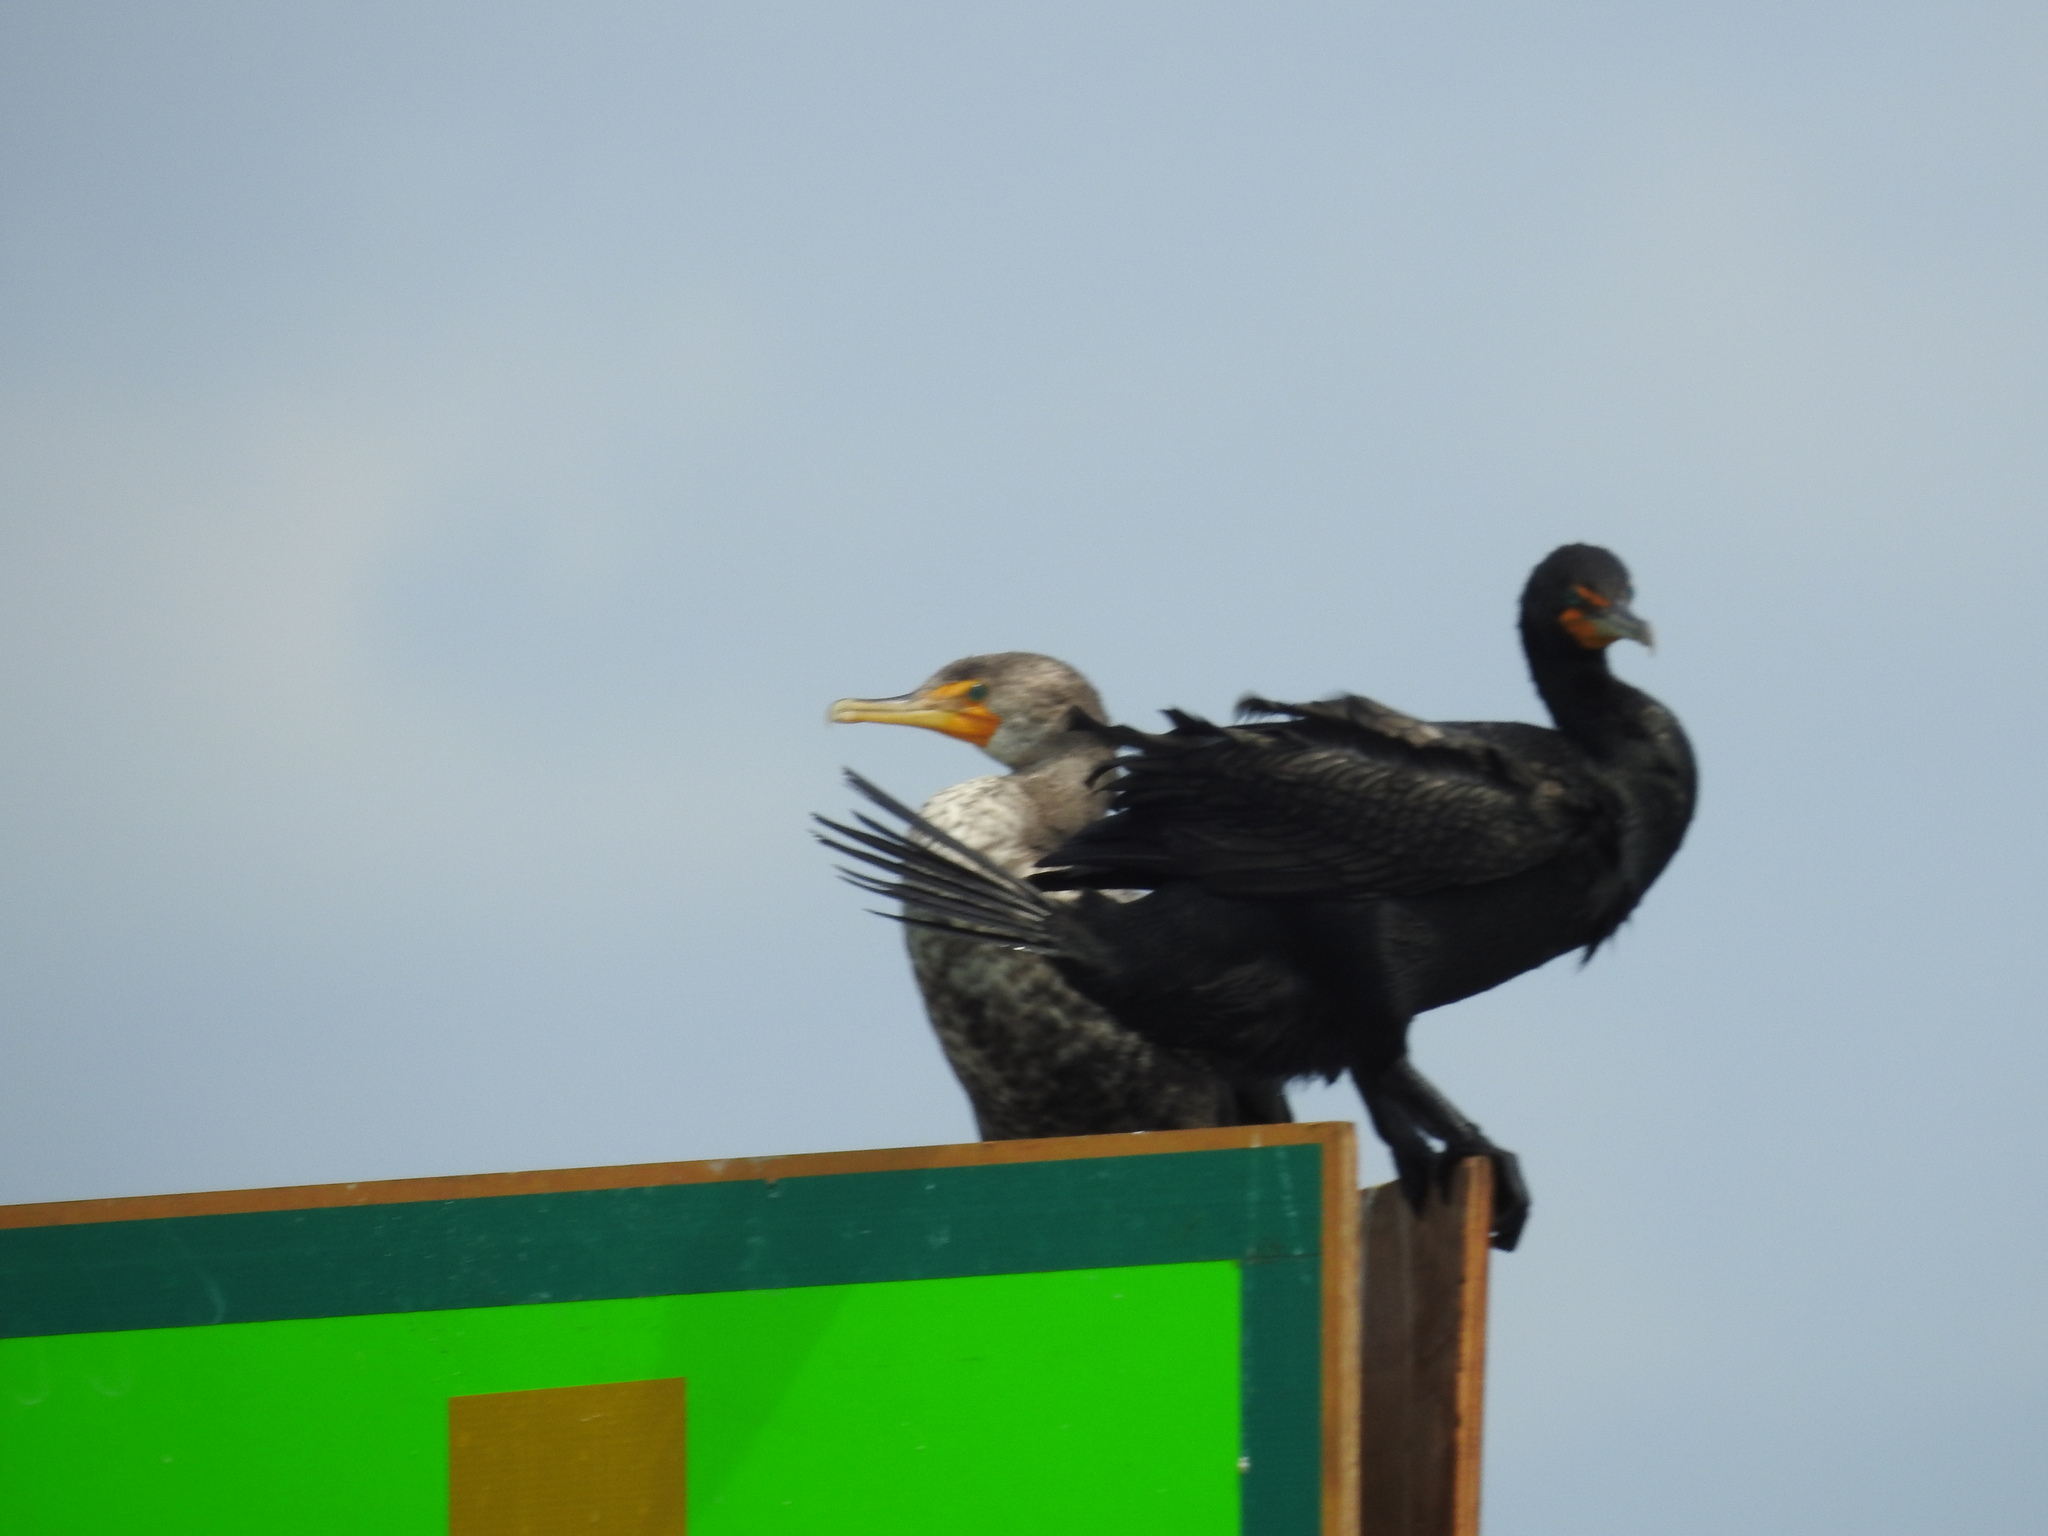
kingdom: Animalia
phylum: Chordata
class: Aves
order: Suliformes
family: Phalacrocoracidae
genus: Phalacrocorax
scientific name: Phalacrocorax auritus
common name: Double-crested cormorant
